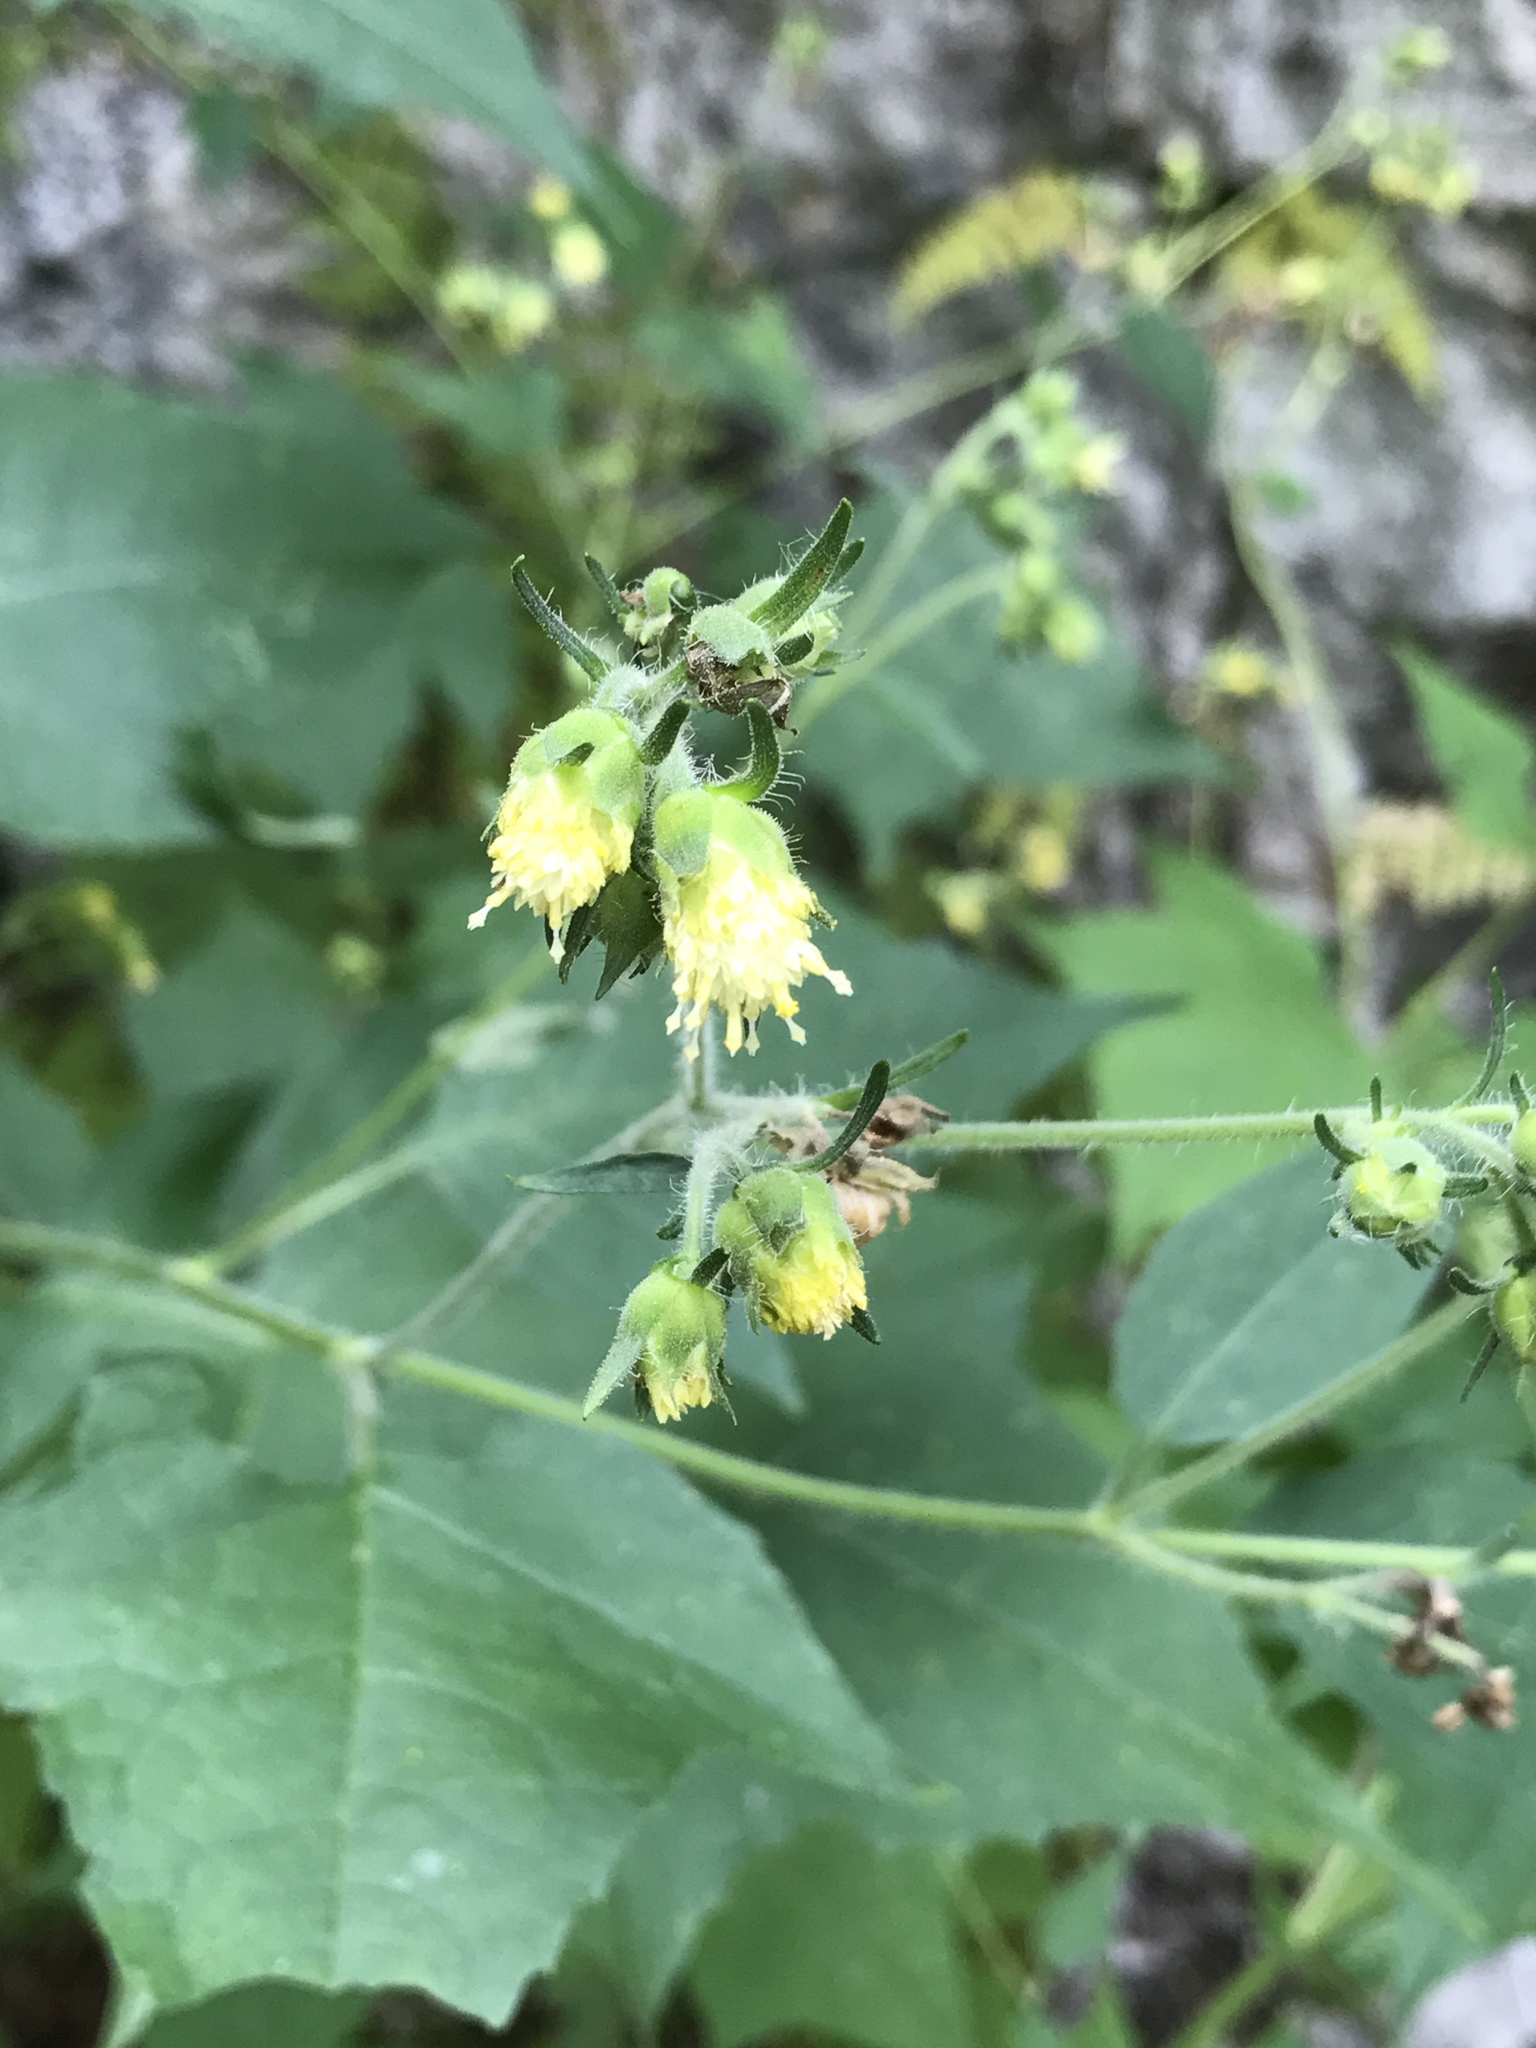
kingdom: Plantae
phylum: Tracheophyta
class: Magnoliopsida
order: Asterales
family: Asteraceae
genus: Polymnia
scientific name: Polymnia canadensis
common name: Pale-flowered leafcup
